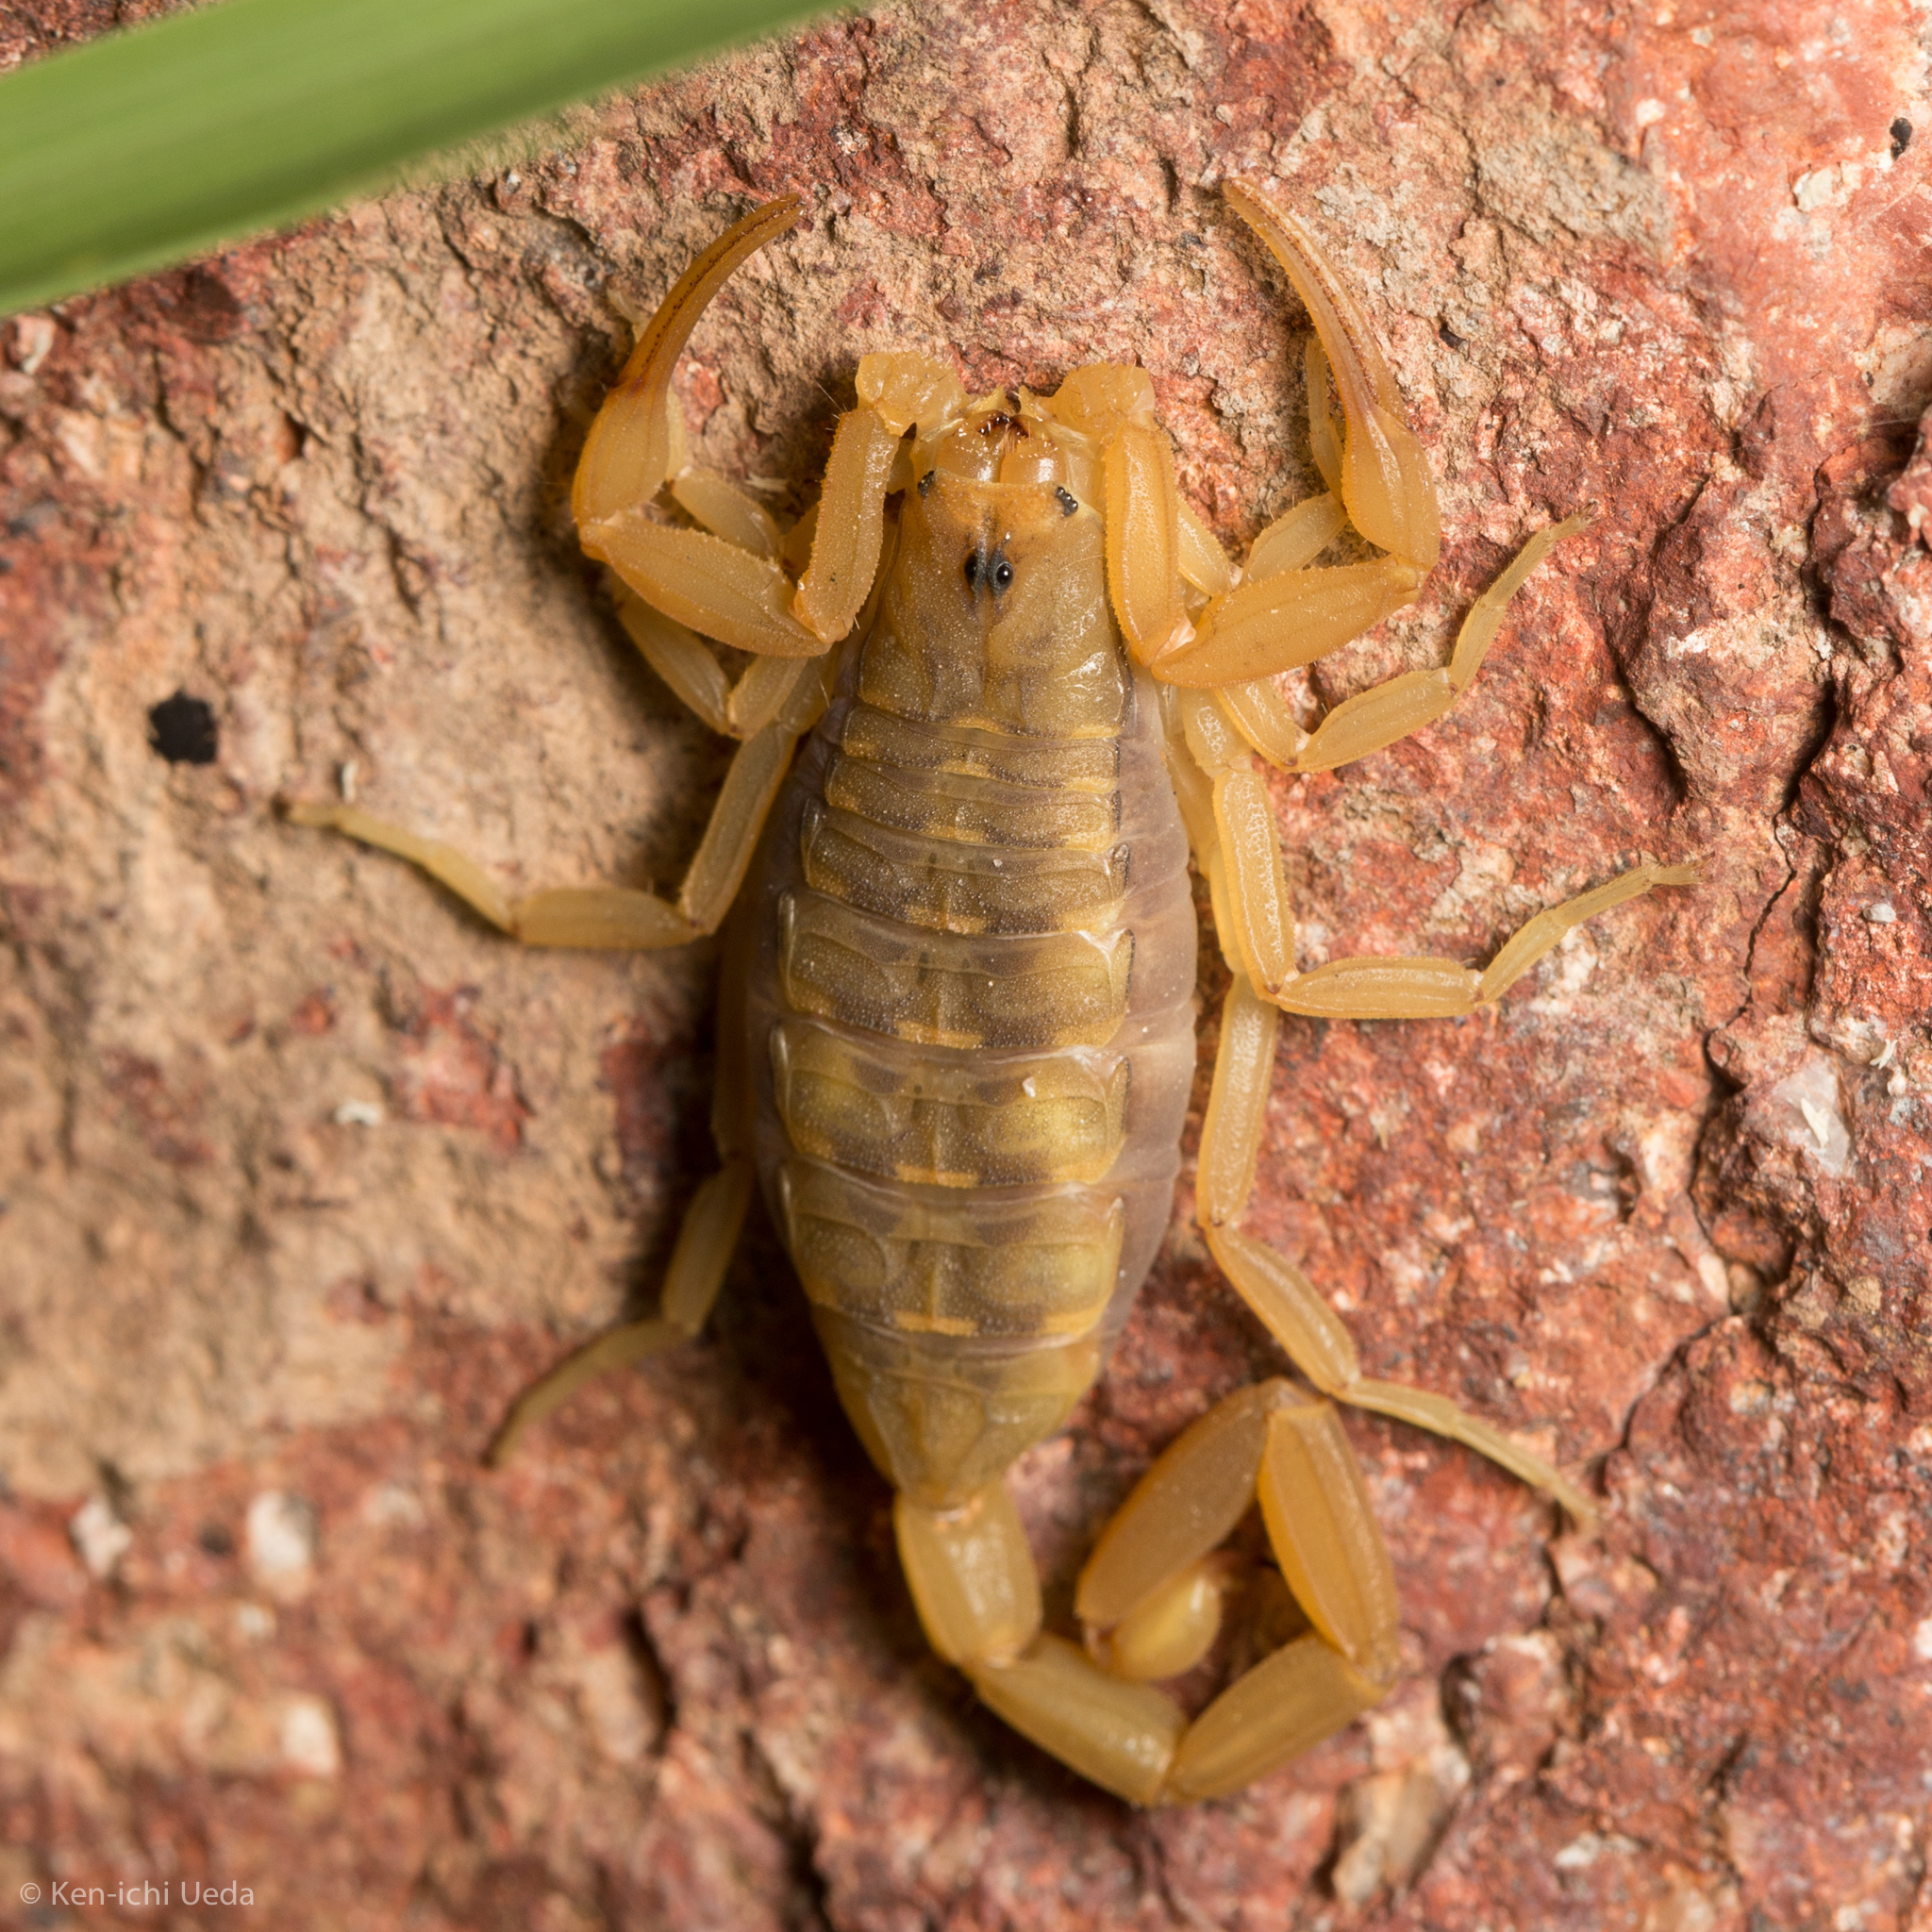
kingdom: Animalia
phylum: Arthropoda
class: Arachnida
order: Scorpiones
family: Buthidae
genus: Centruroides
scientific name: Centruroides sculpturatus
